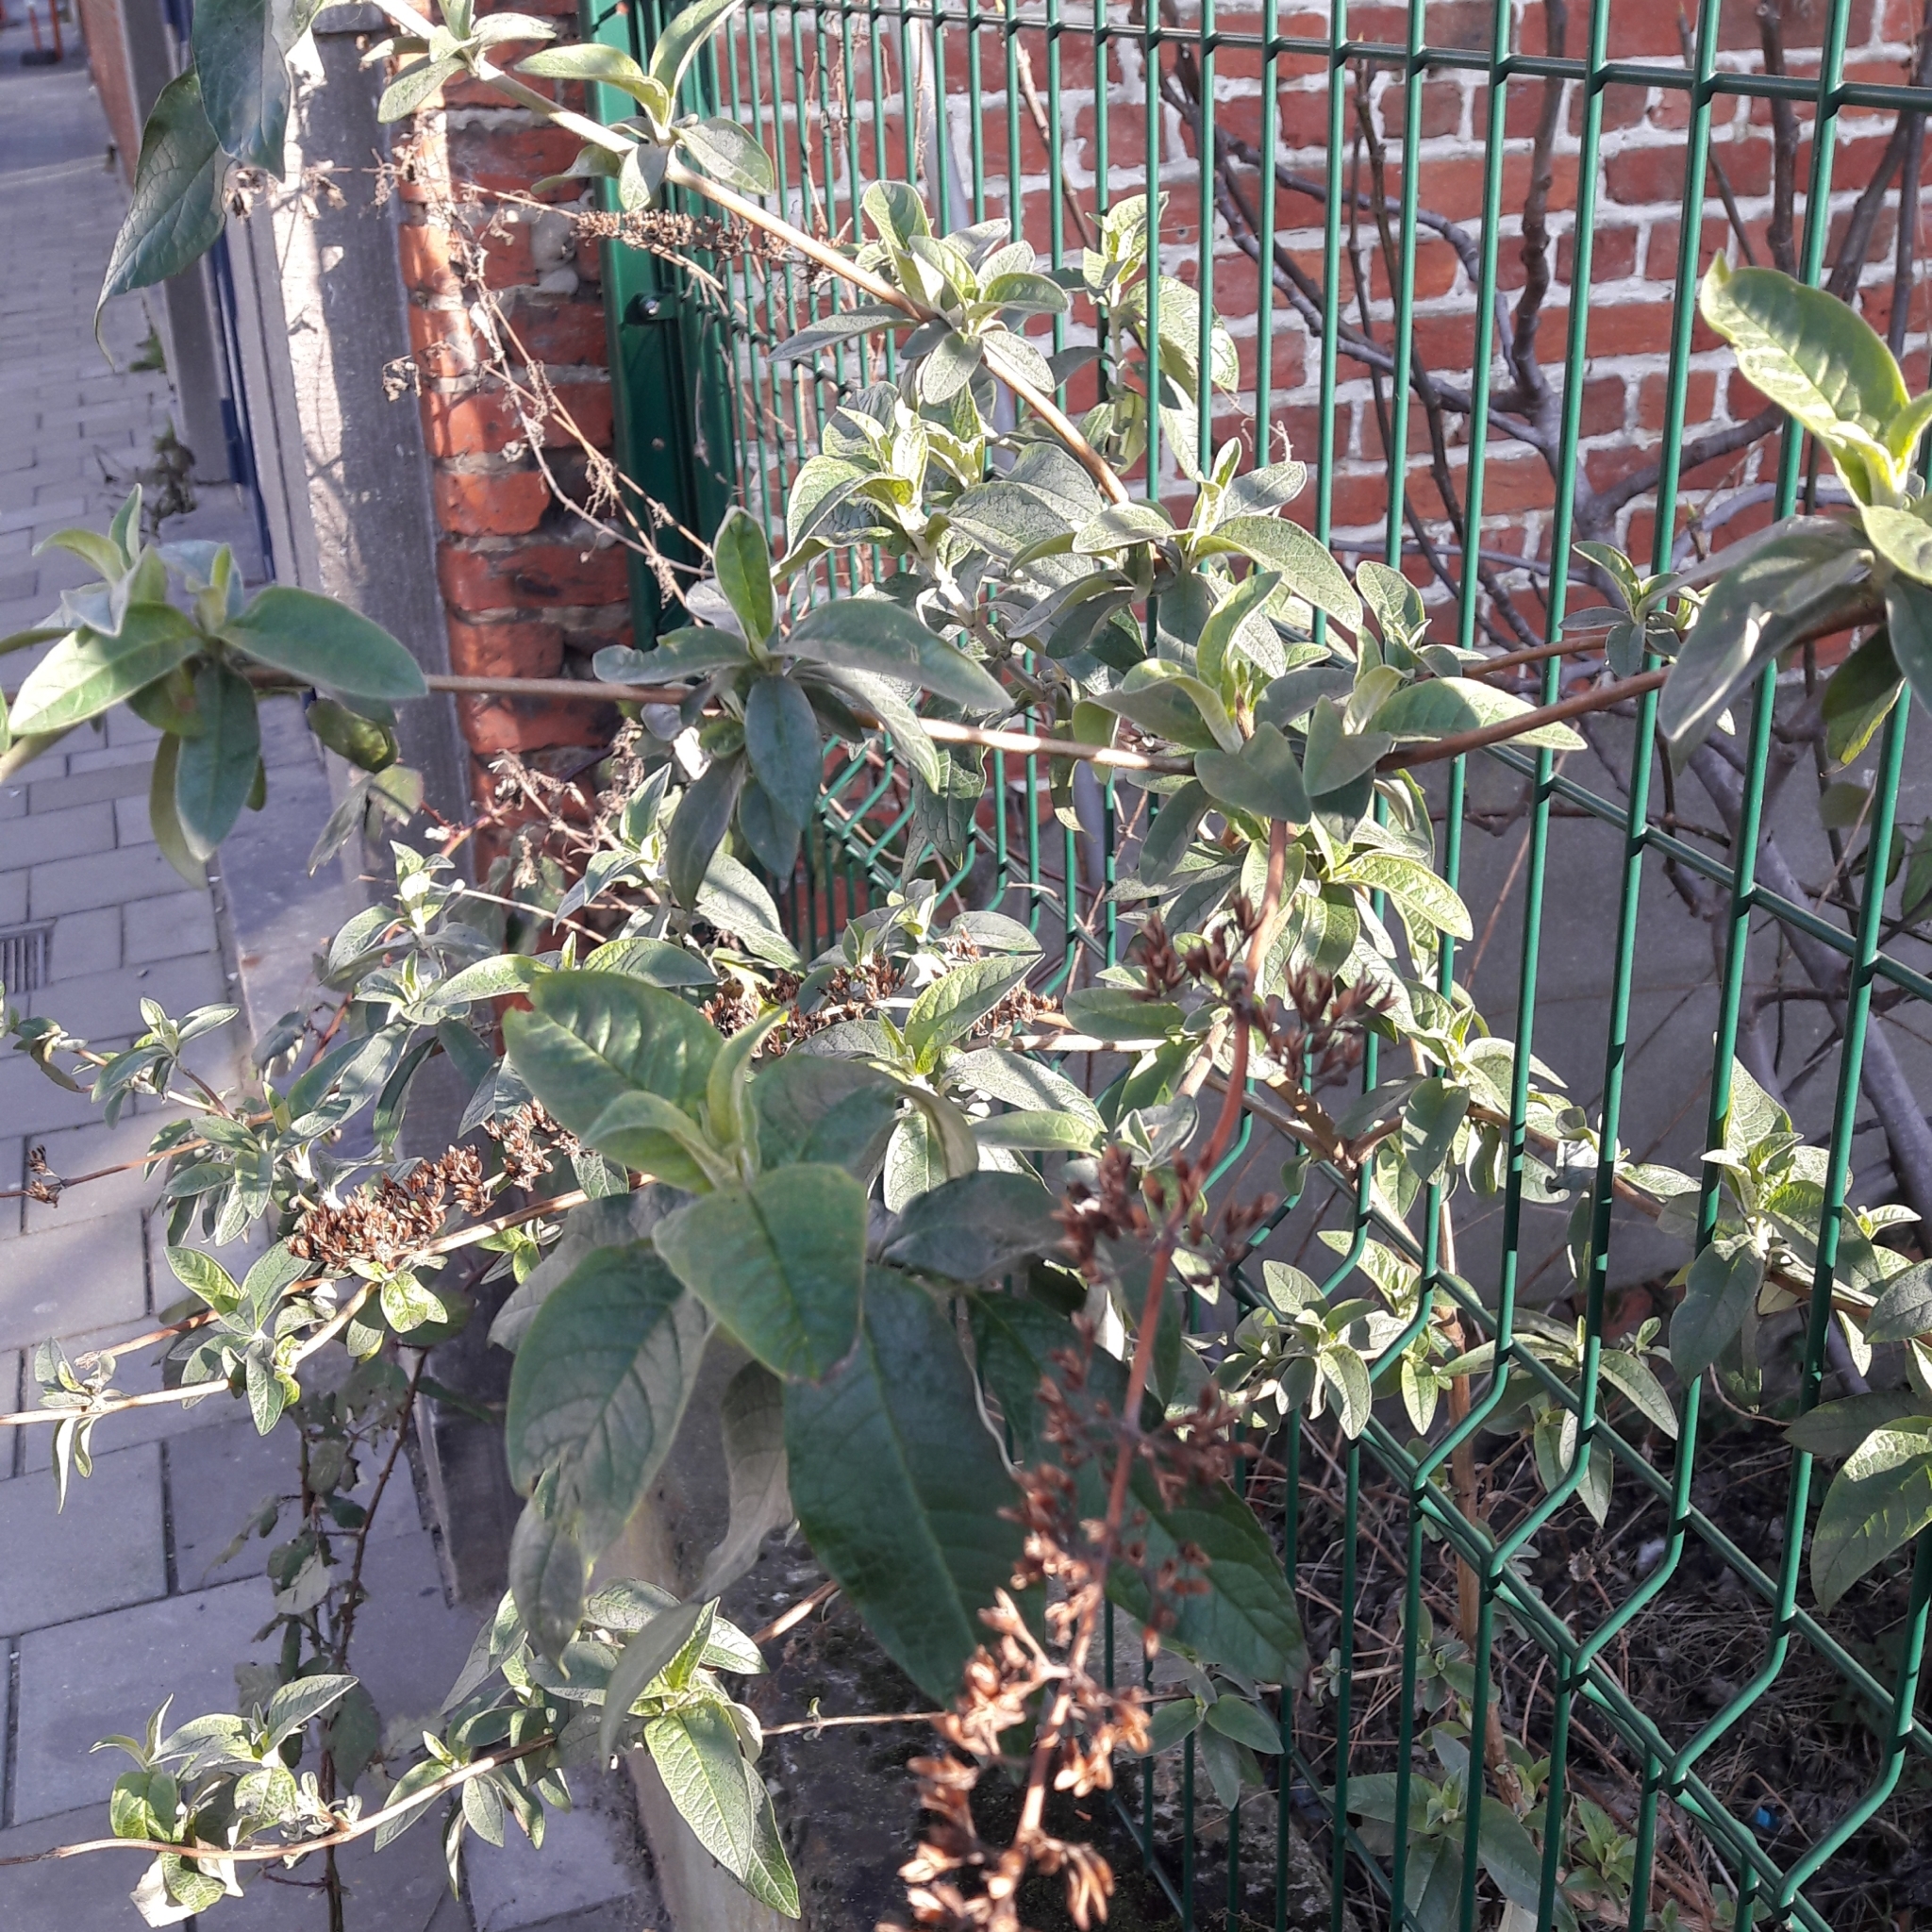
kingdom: Plantae
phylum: Tracheophyta
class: Magnoliopsida
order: Lamiales
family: Scrophulariaceae
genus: Buddleja
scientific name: Buddleja davidii
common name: Butterfly-bush
